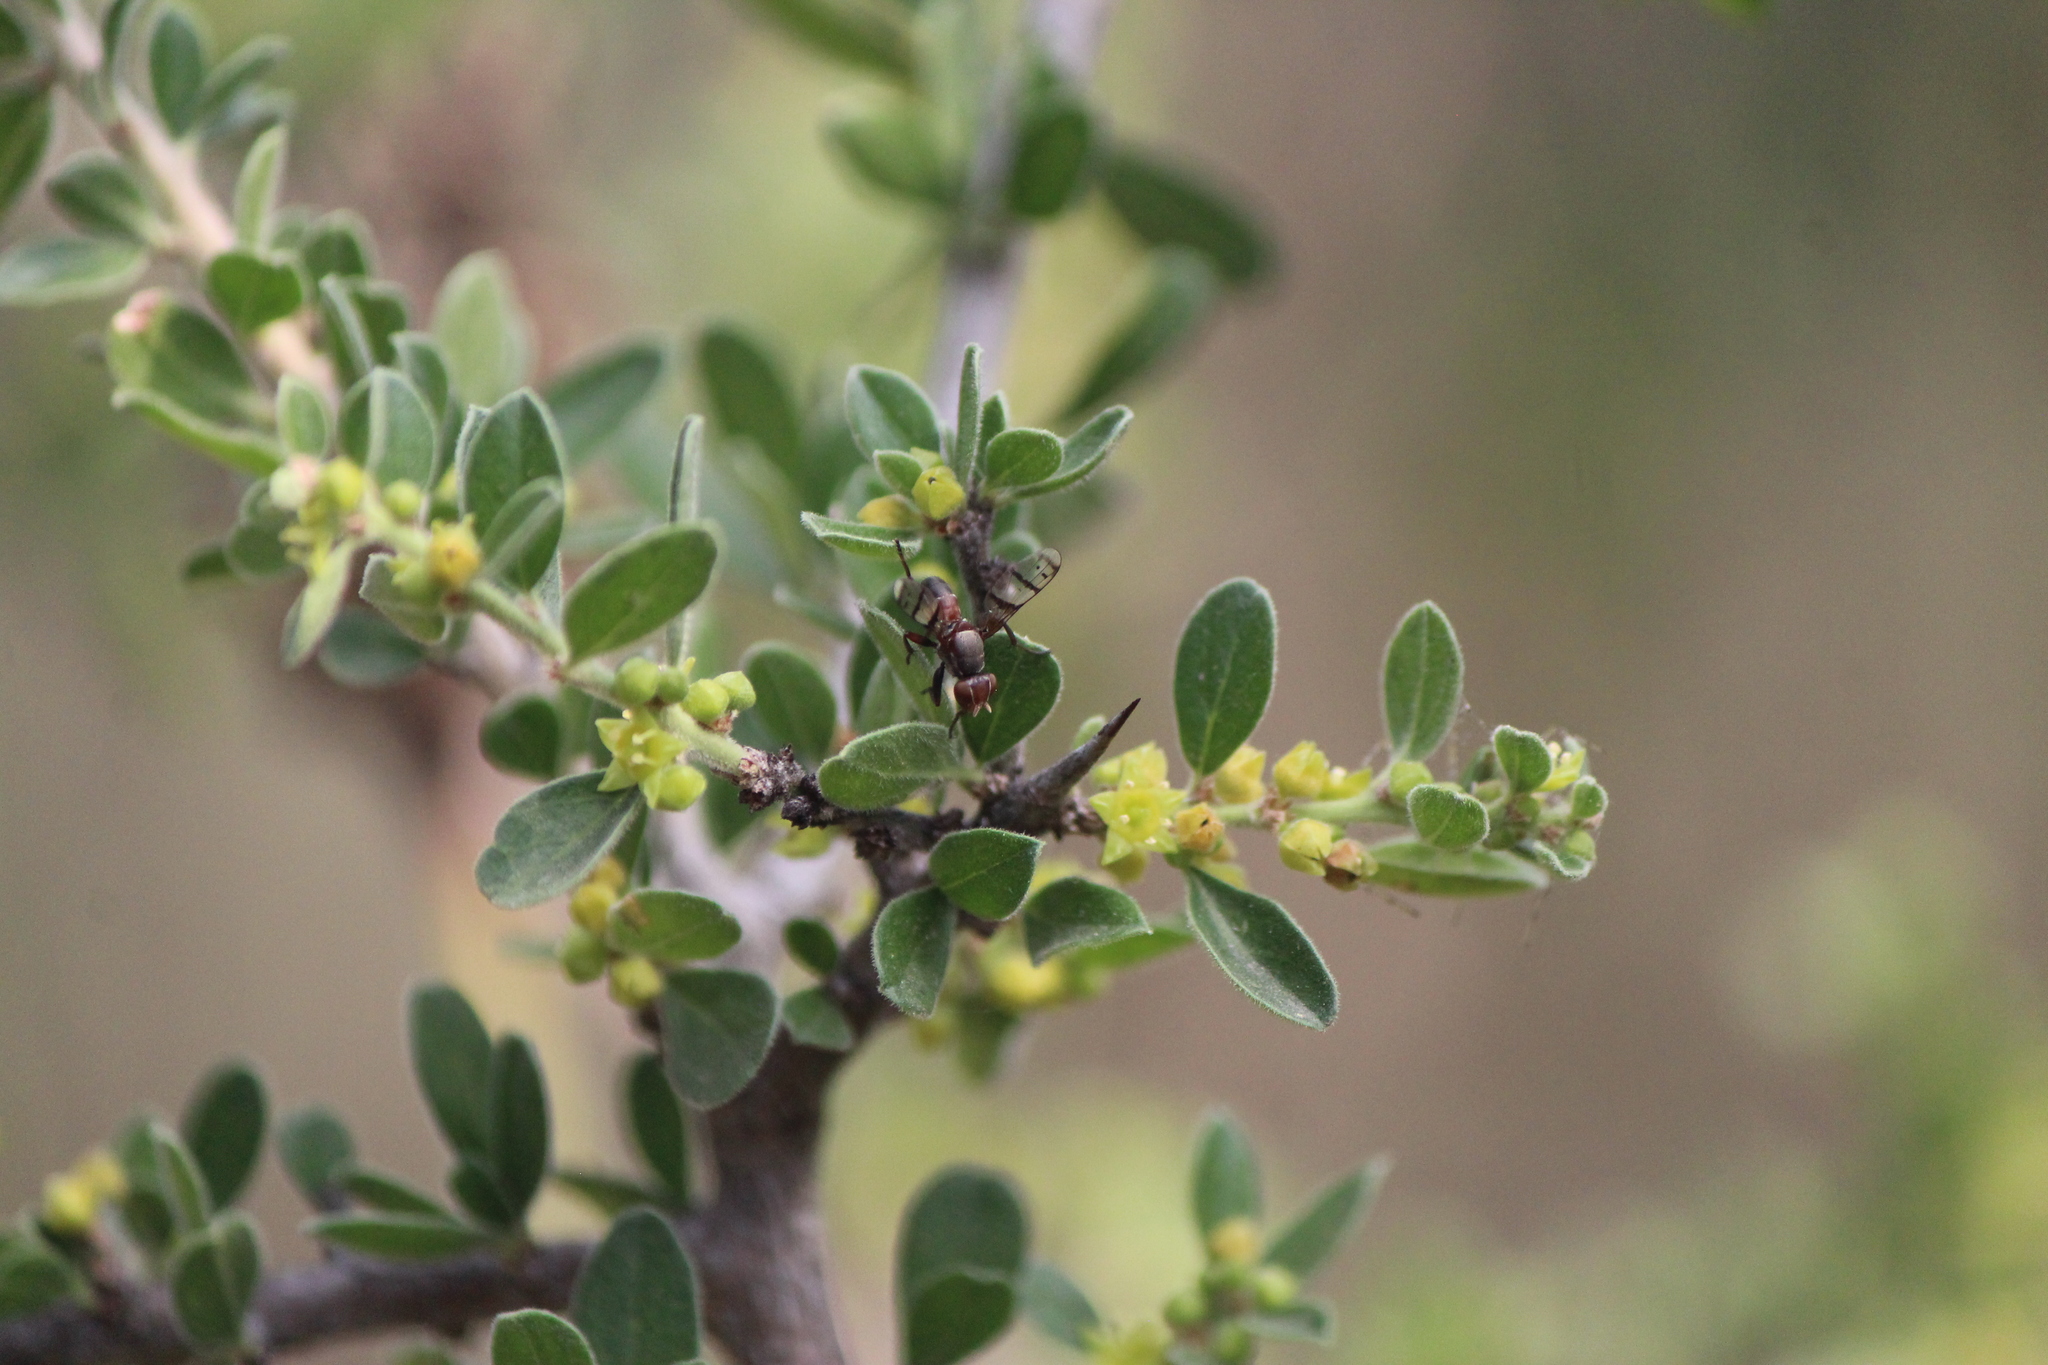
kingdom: Animalia
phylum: Arthropoda
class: Insecta
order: Diptera
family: Richardiidae
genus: Automola
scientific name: Automola rufa
